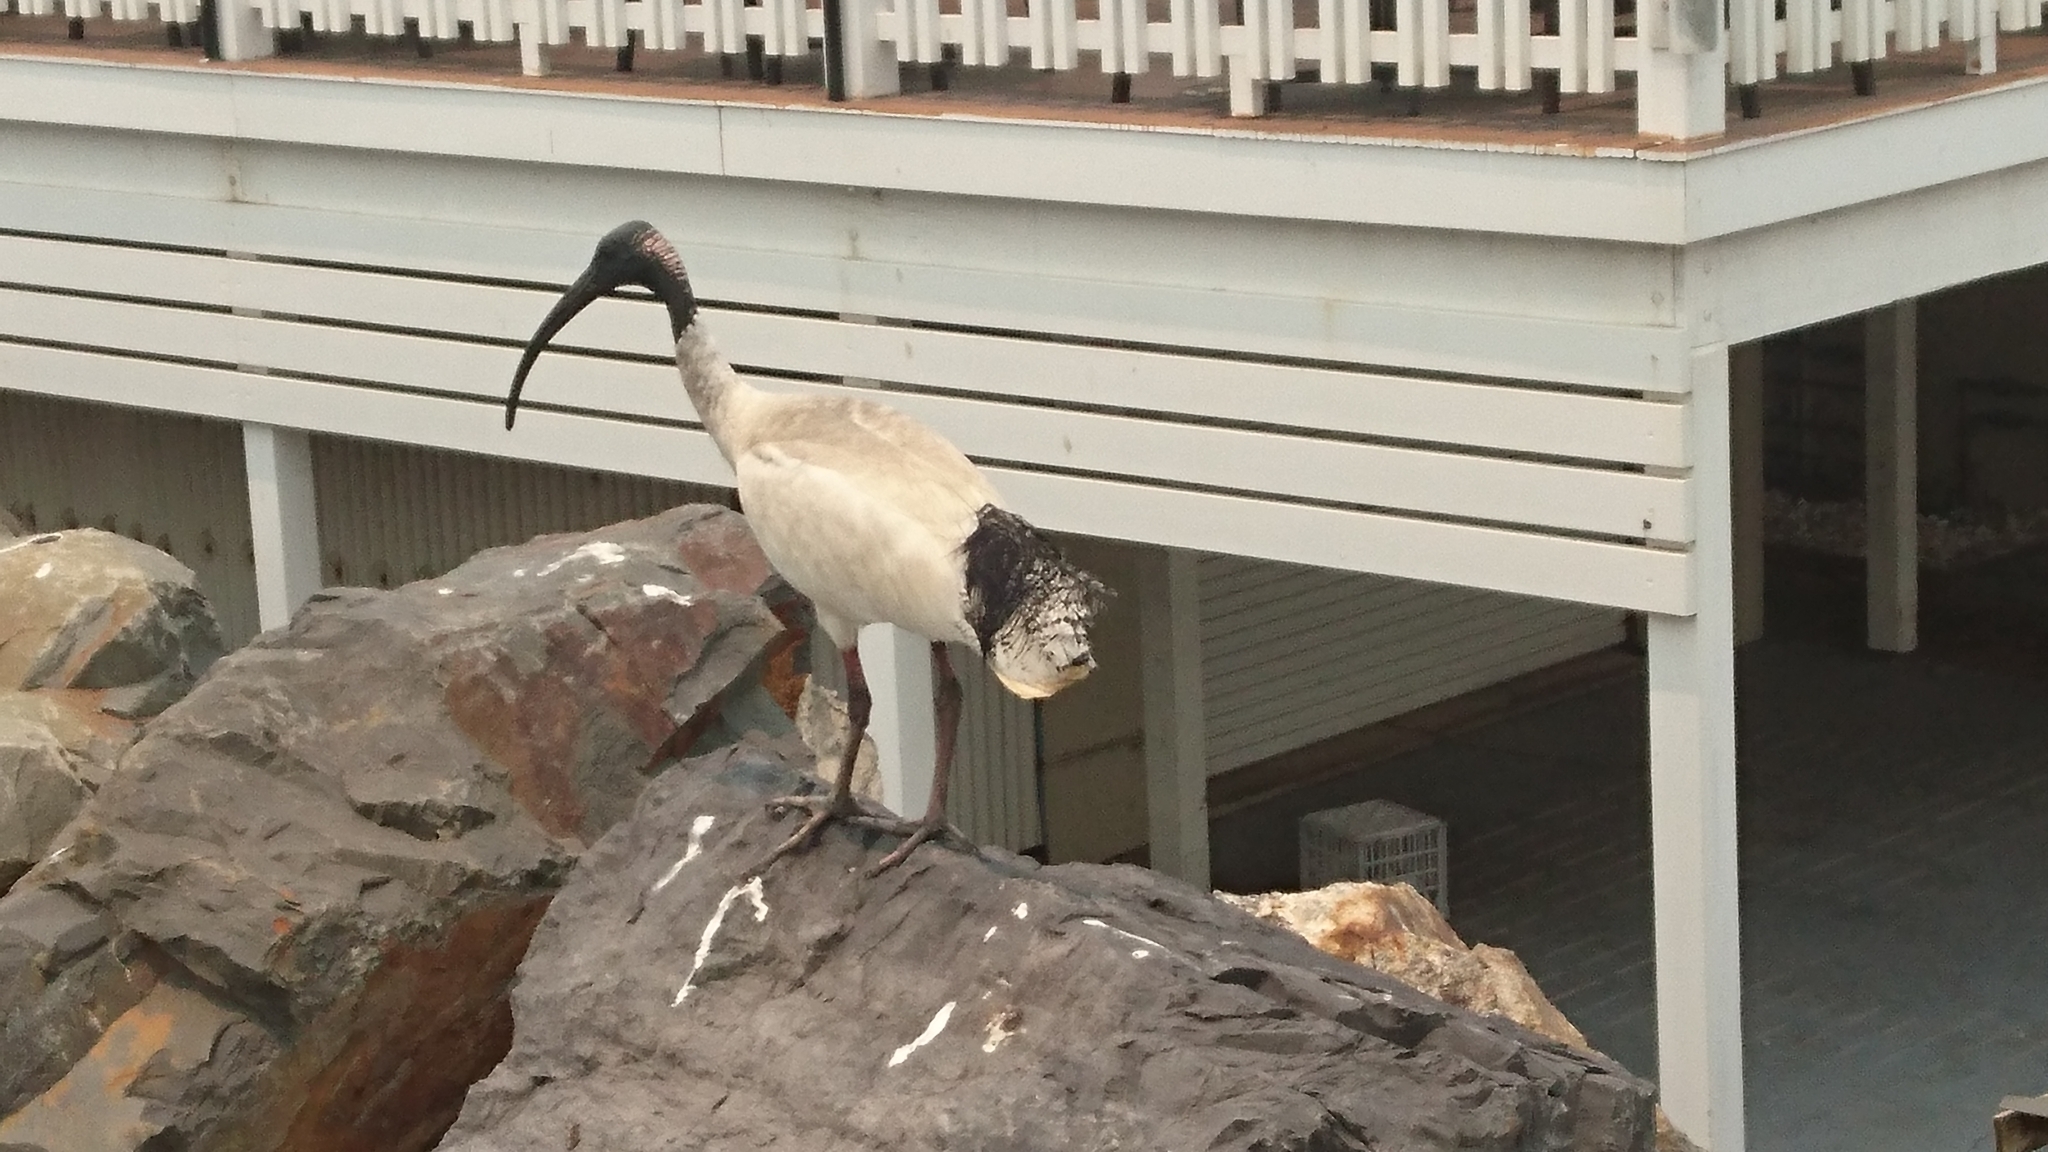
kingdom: Animalia
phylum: Chordata
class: Aves
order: Pelecaniformes
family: Threskiornithidae
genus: Threskiornis
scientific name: Threskiornis molucca
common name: Australian white ibis
